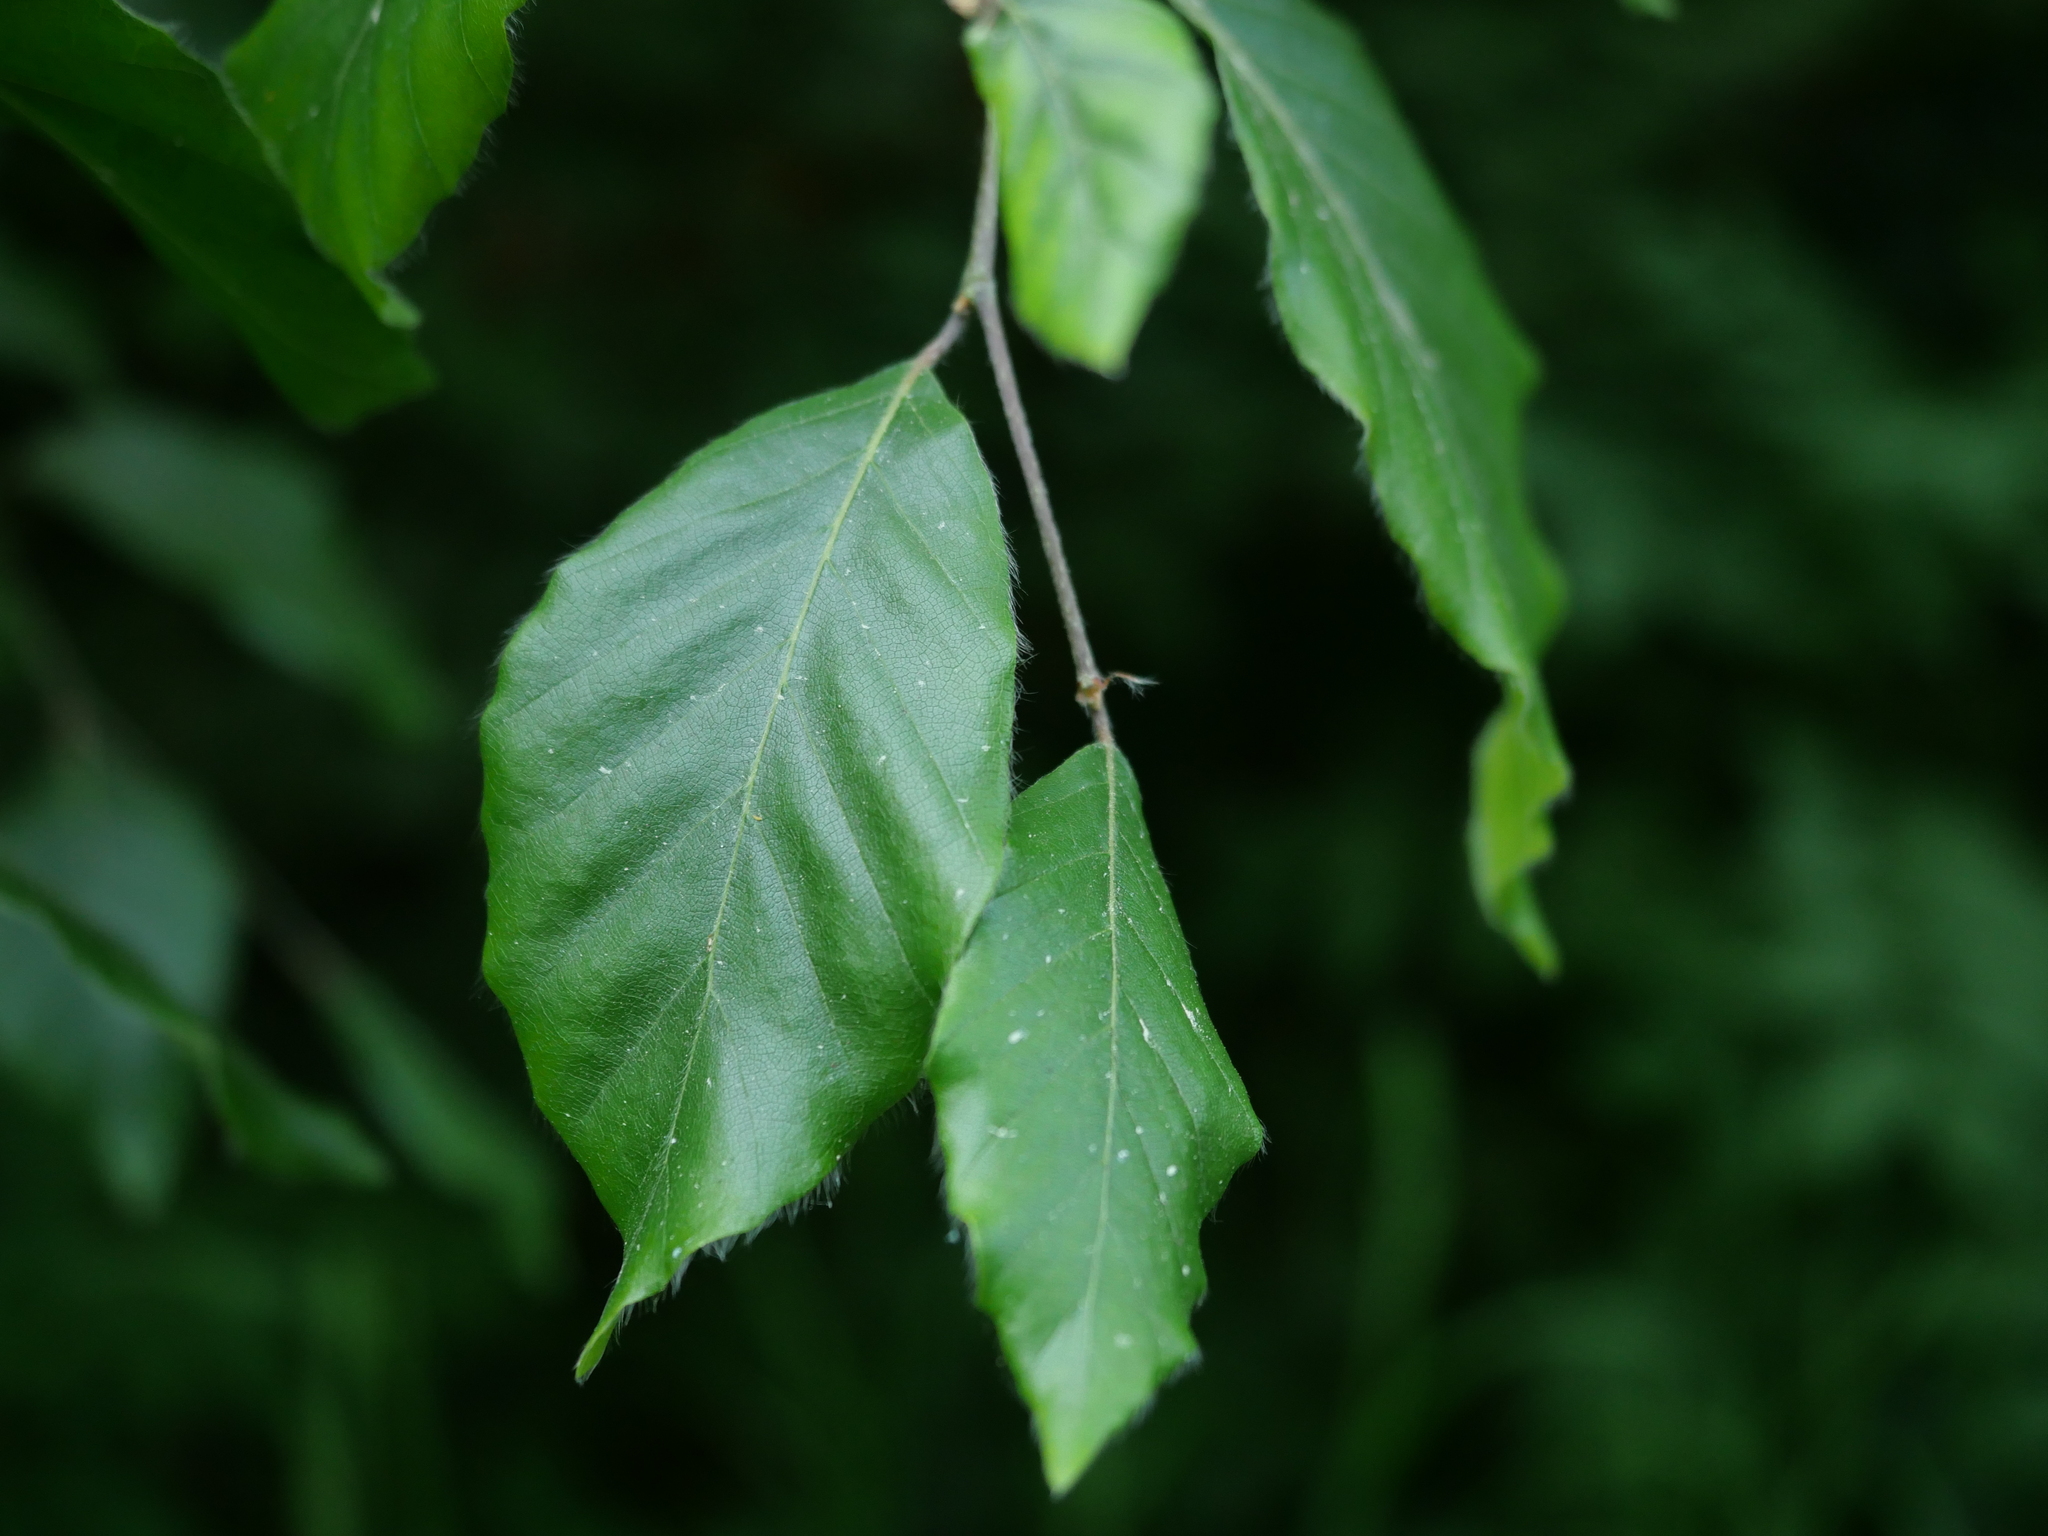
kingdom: Plantae
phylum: Tracheophyta
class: Magnoliopsida
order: Fagales
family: Fagaceae
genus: Fagus
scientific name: Fagus sylvatica
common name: Beech
